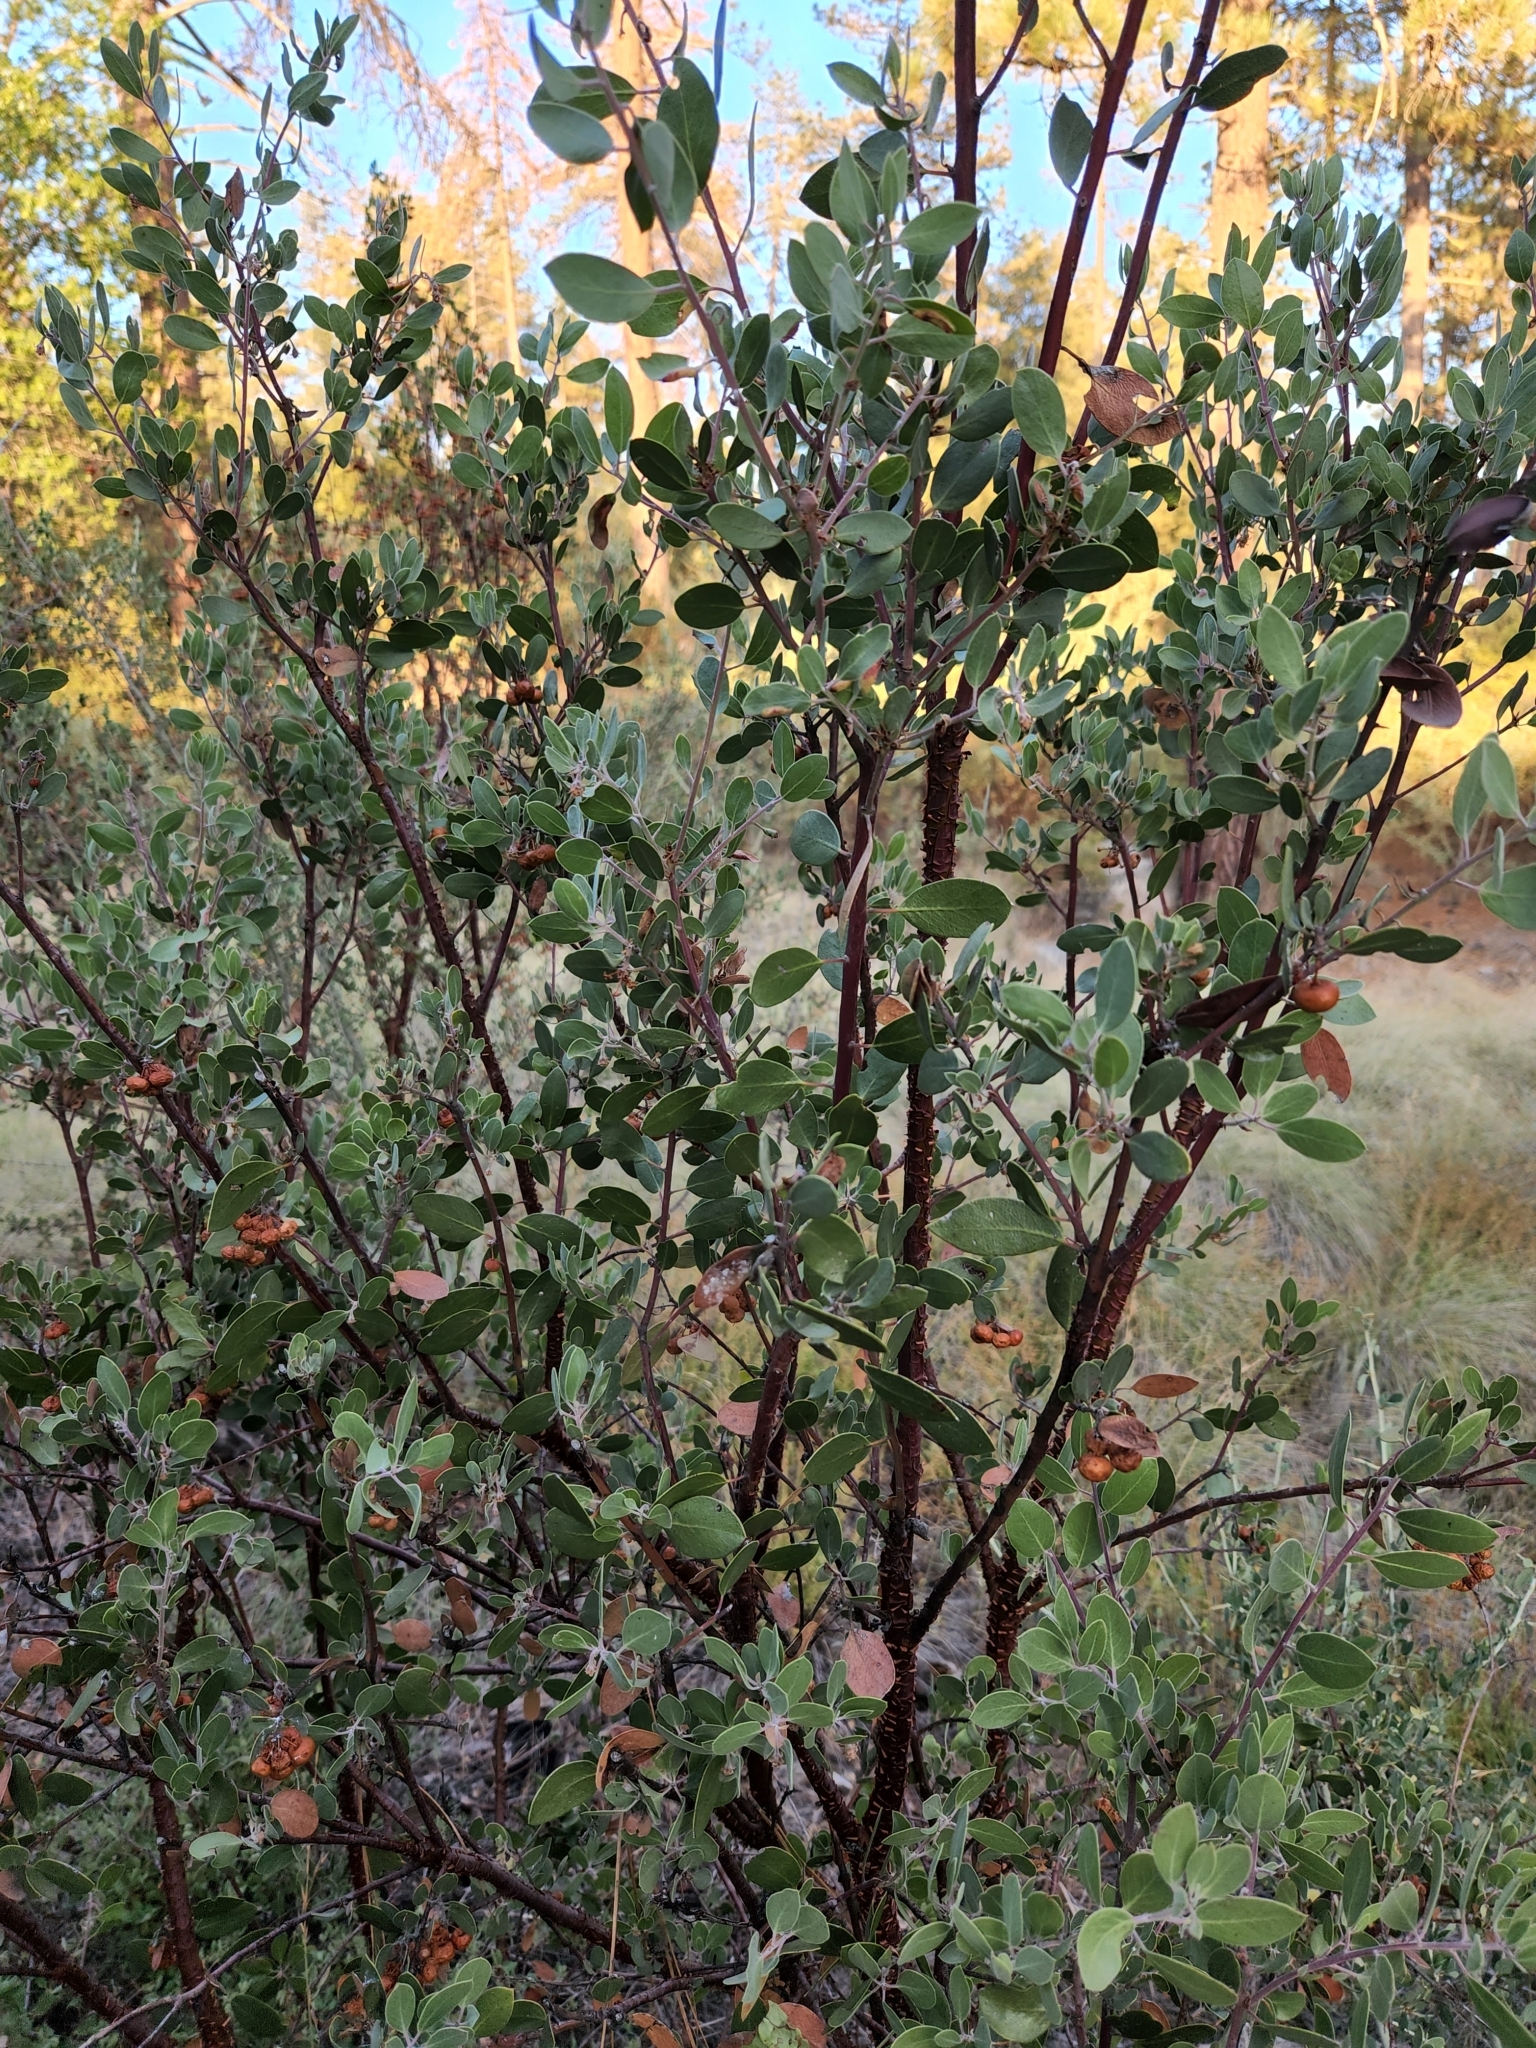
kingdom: Plantae
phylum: Tracheophyta
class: Magnoliopsida
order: Ericales
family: Ericaceae
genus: Arctostaphylos
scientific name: Arctostaphylos pungens
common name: Mexican manzanita
